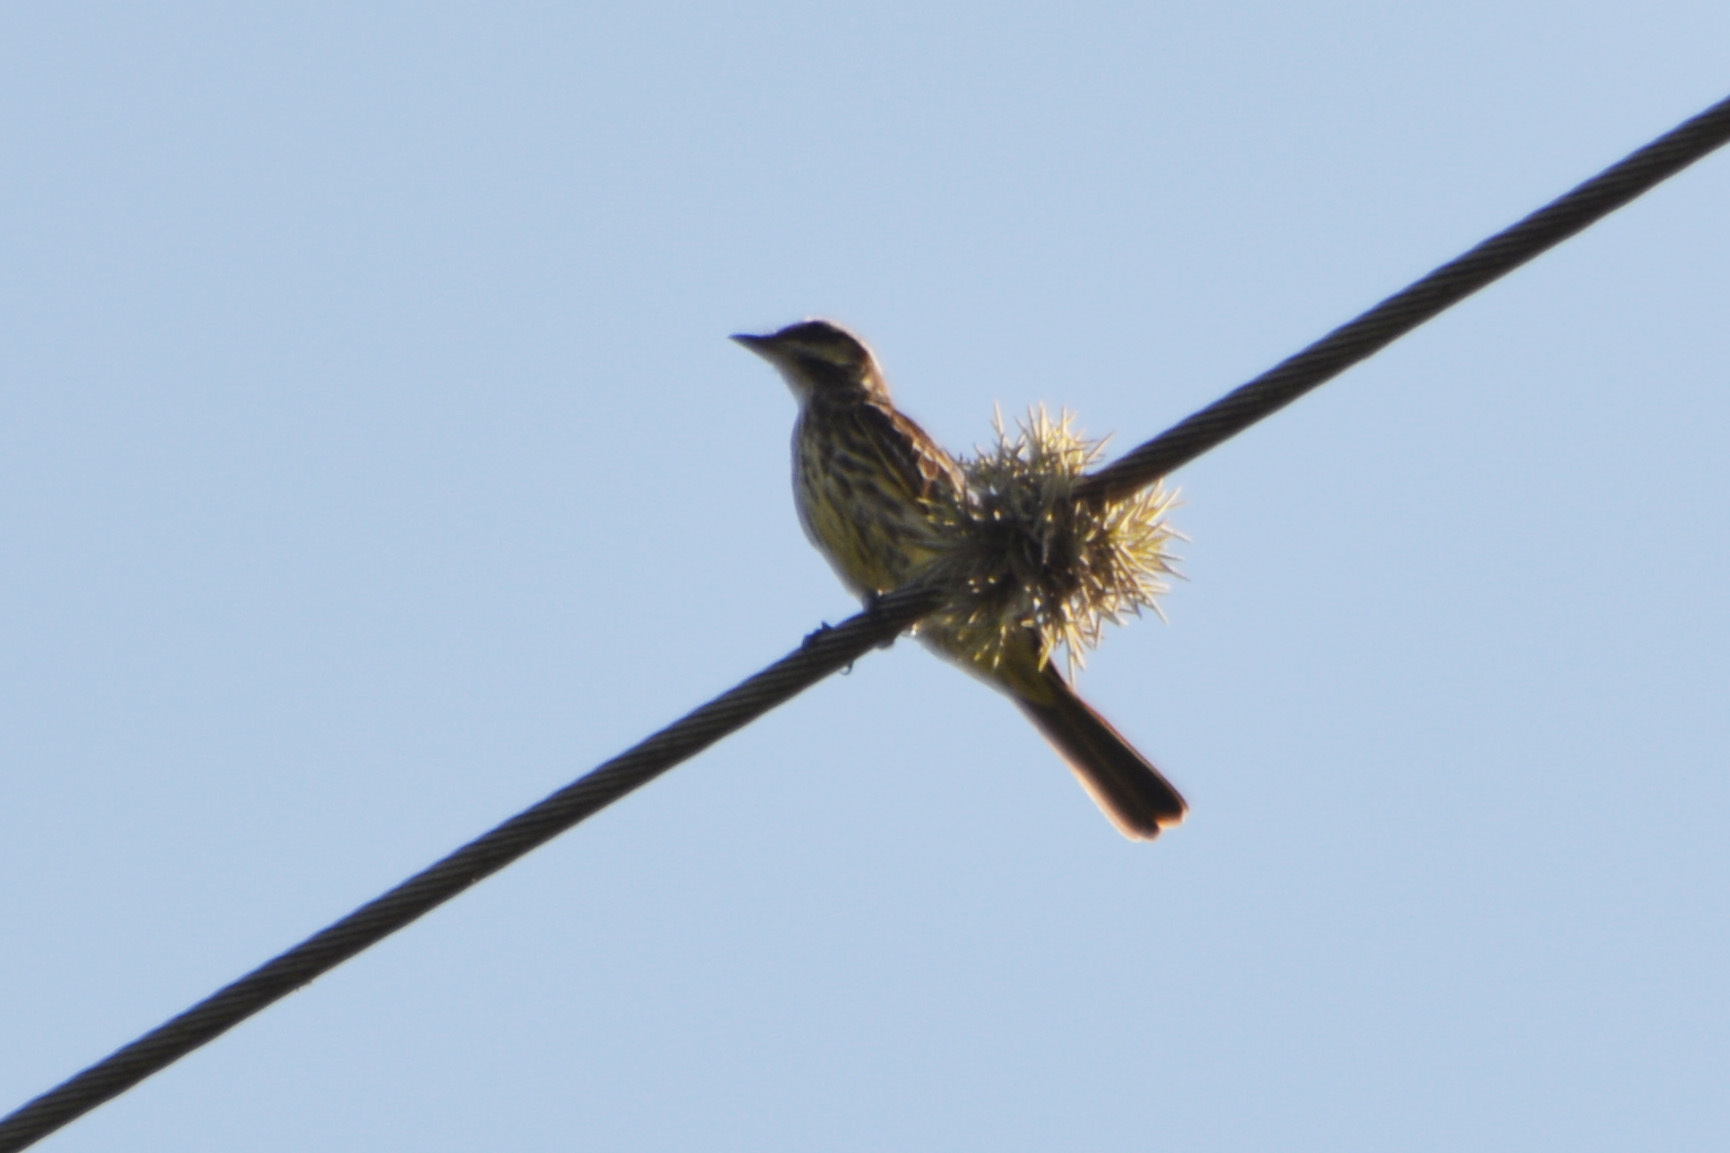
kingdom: Animalia
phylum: Chordata
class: Aves
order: Passeriformes
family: Tyrannidae
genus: Myiodynastes
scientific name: Myiodynastes maculatus
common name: Streaked flycatcher
